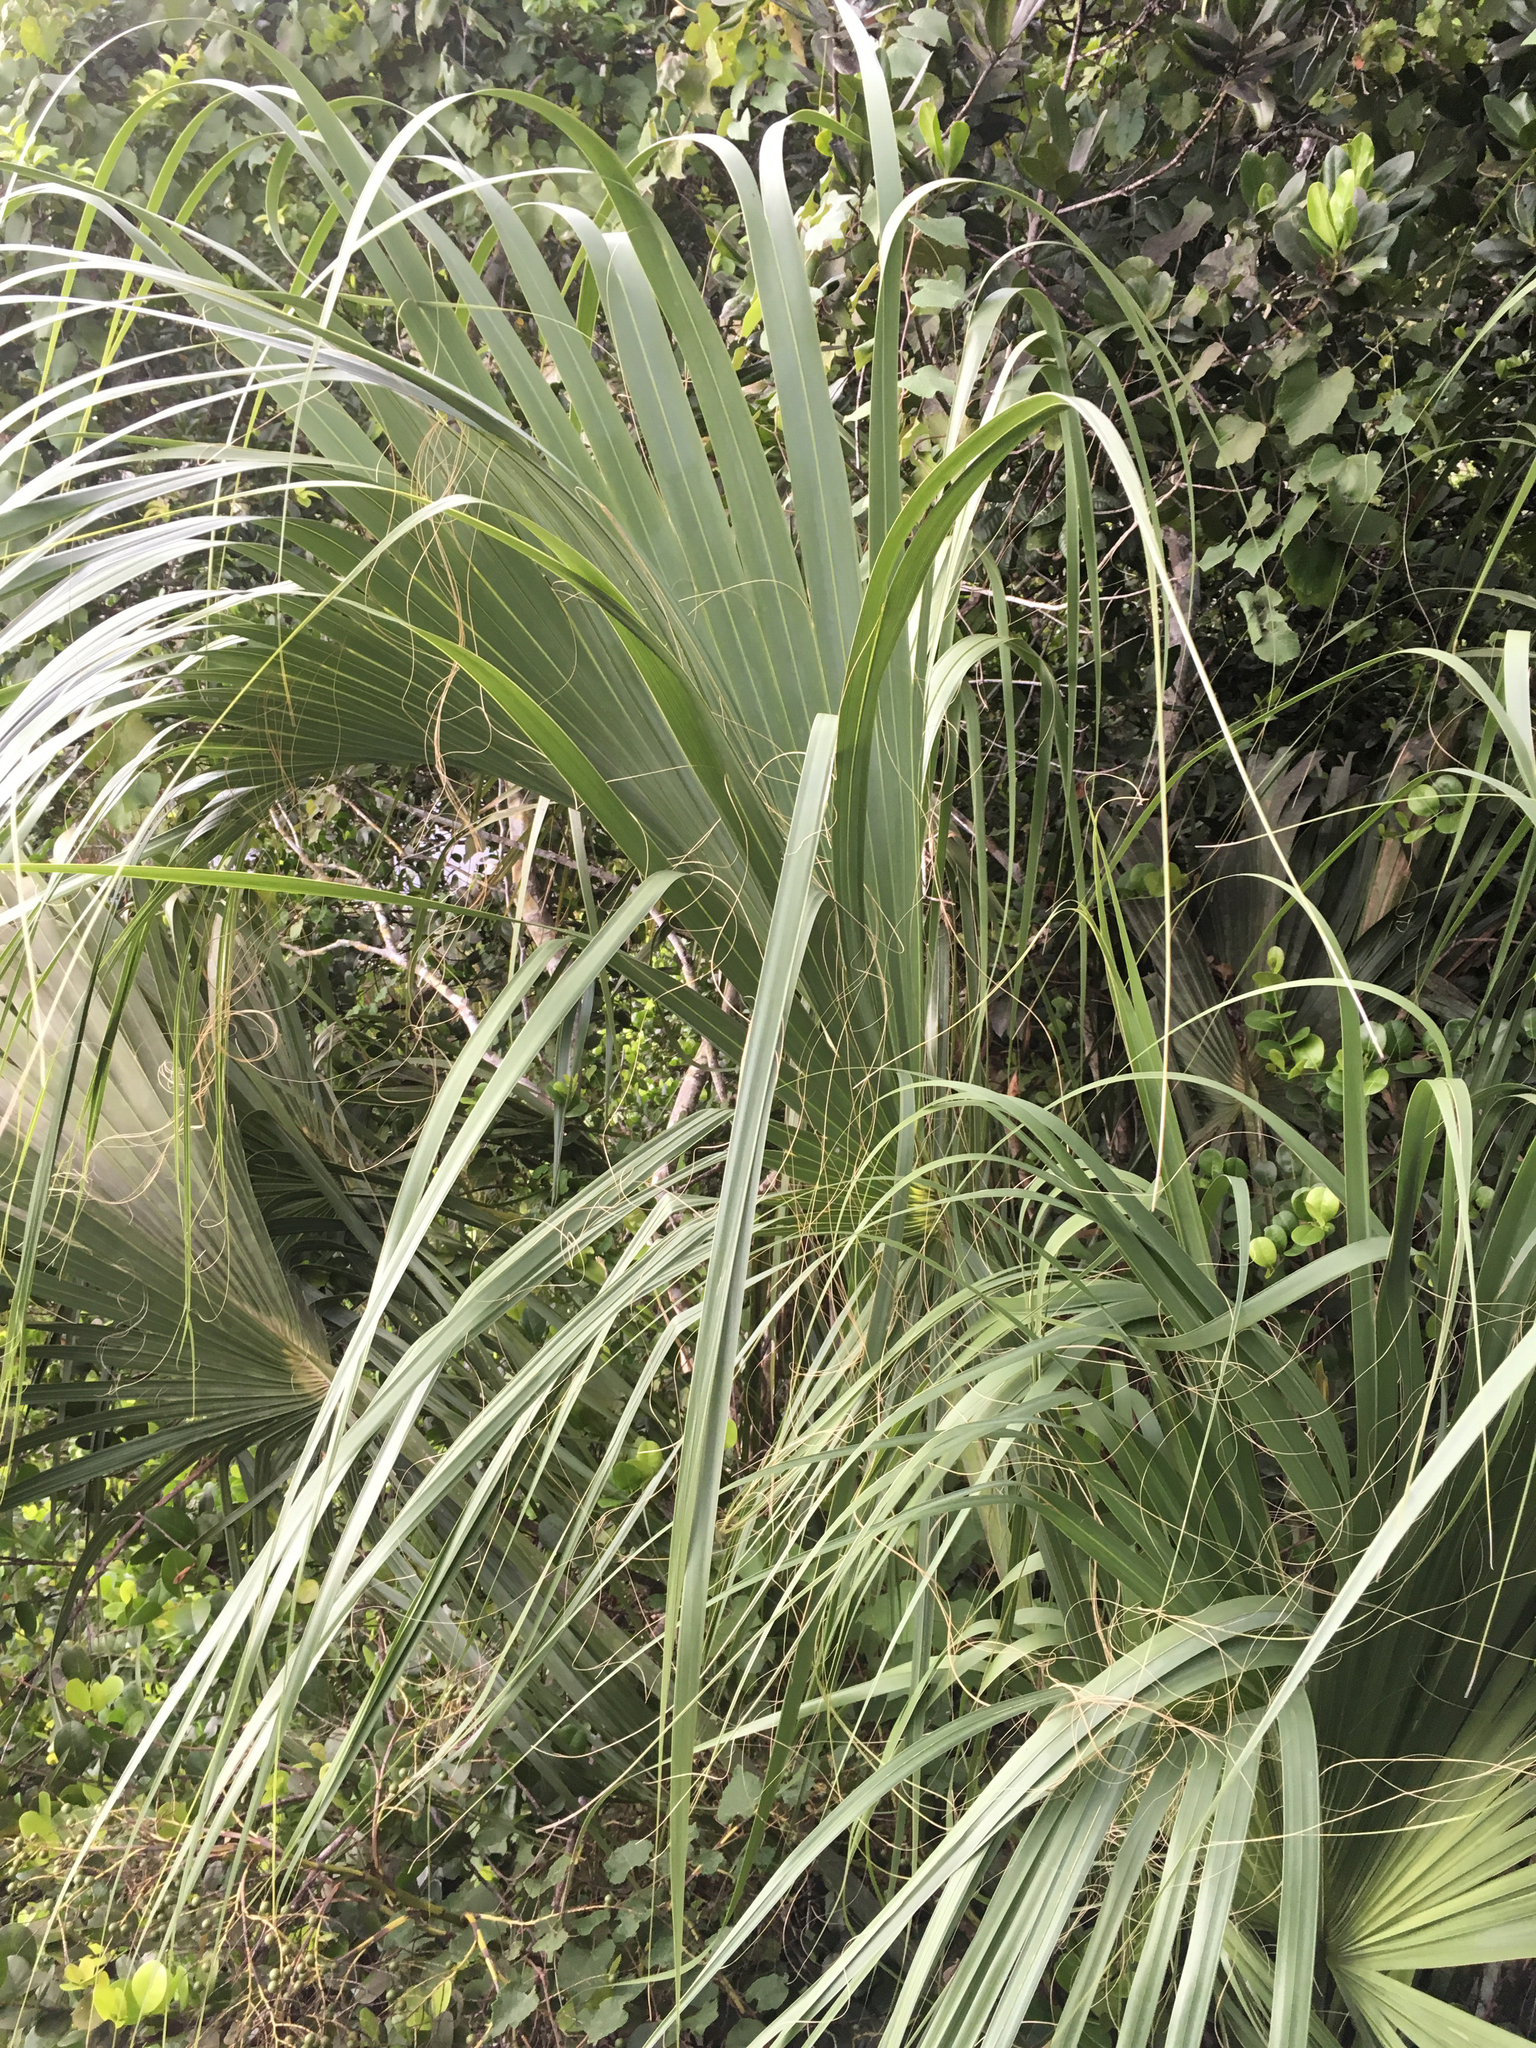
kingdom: Plantae
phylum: Tracheophyta
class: Liliopsida
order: Arecales
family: Arecaceae
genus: Sabal
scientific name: Sabal palmetto
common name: Blue palmetto
